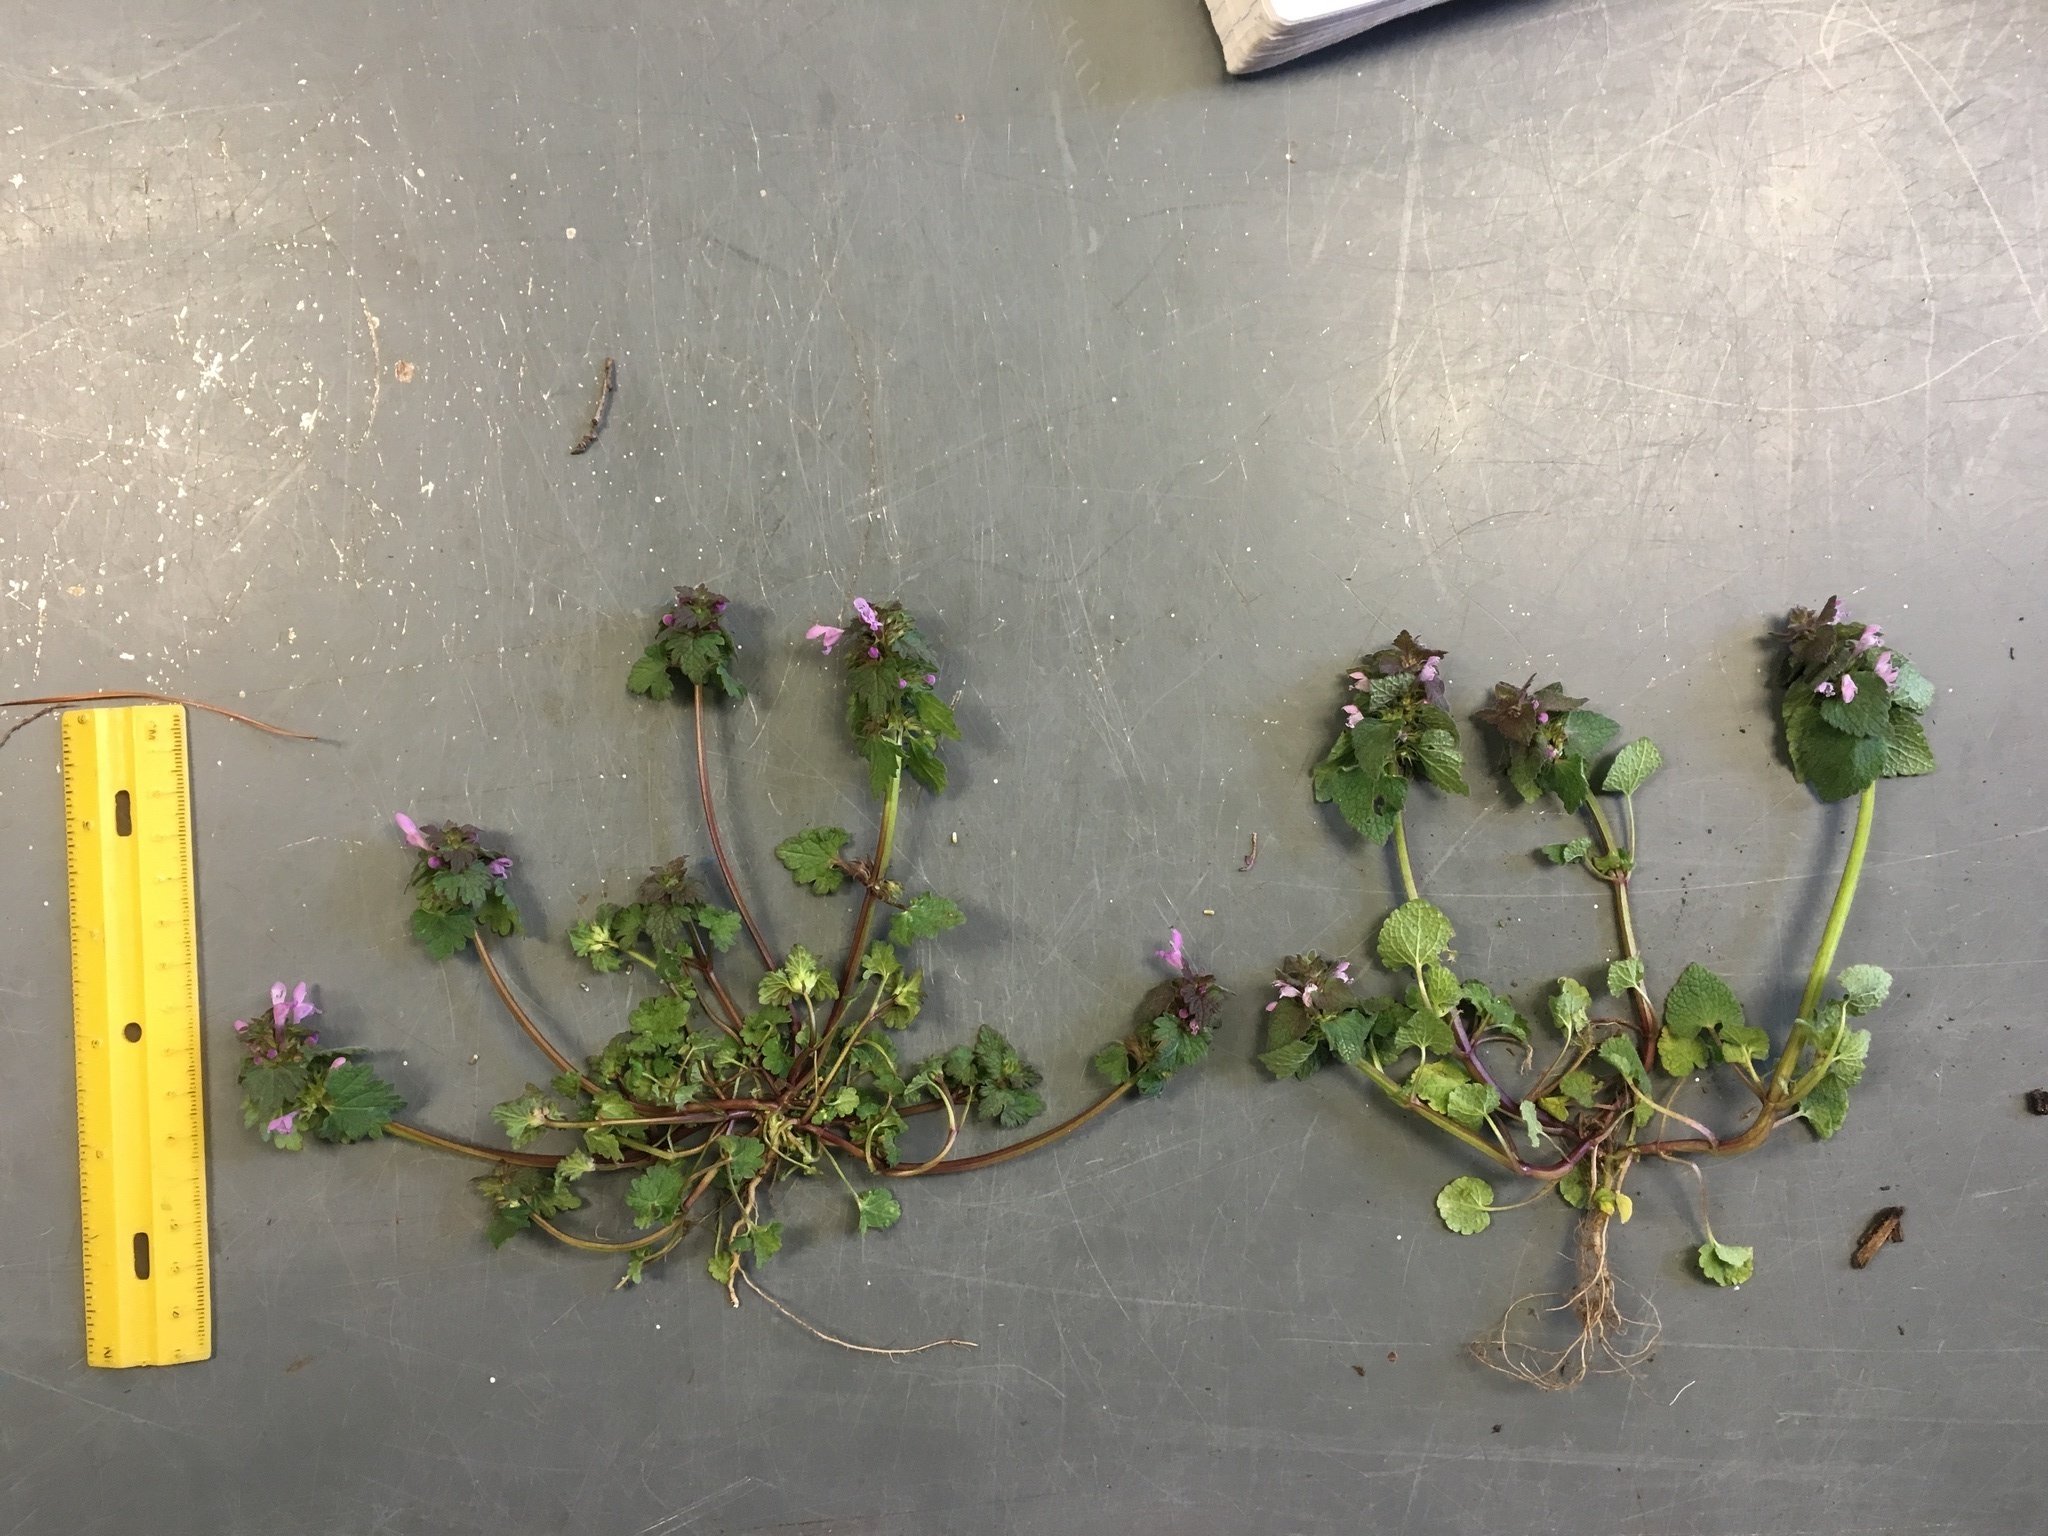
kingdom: Plantae
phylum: Tracheophyta
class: Magnoliopsida
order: Lamiales
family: Lamiaceae
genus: Lamium
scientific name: Lamium purpureum
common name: Red dead-nettle
